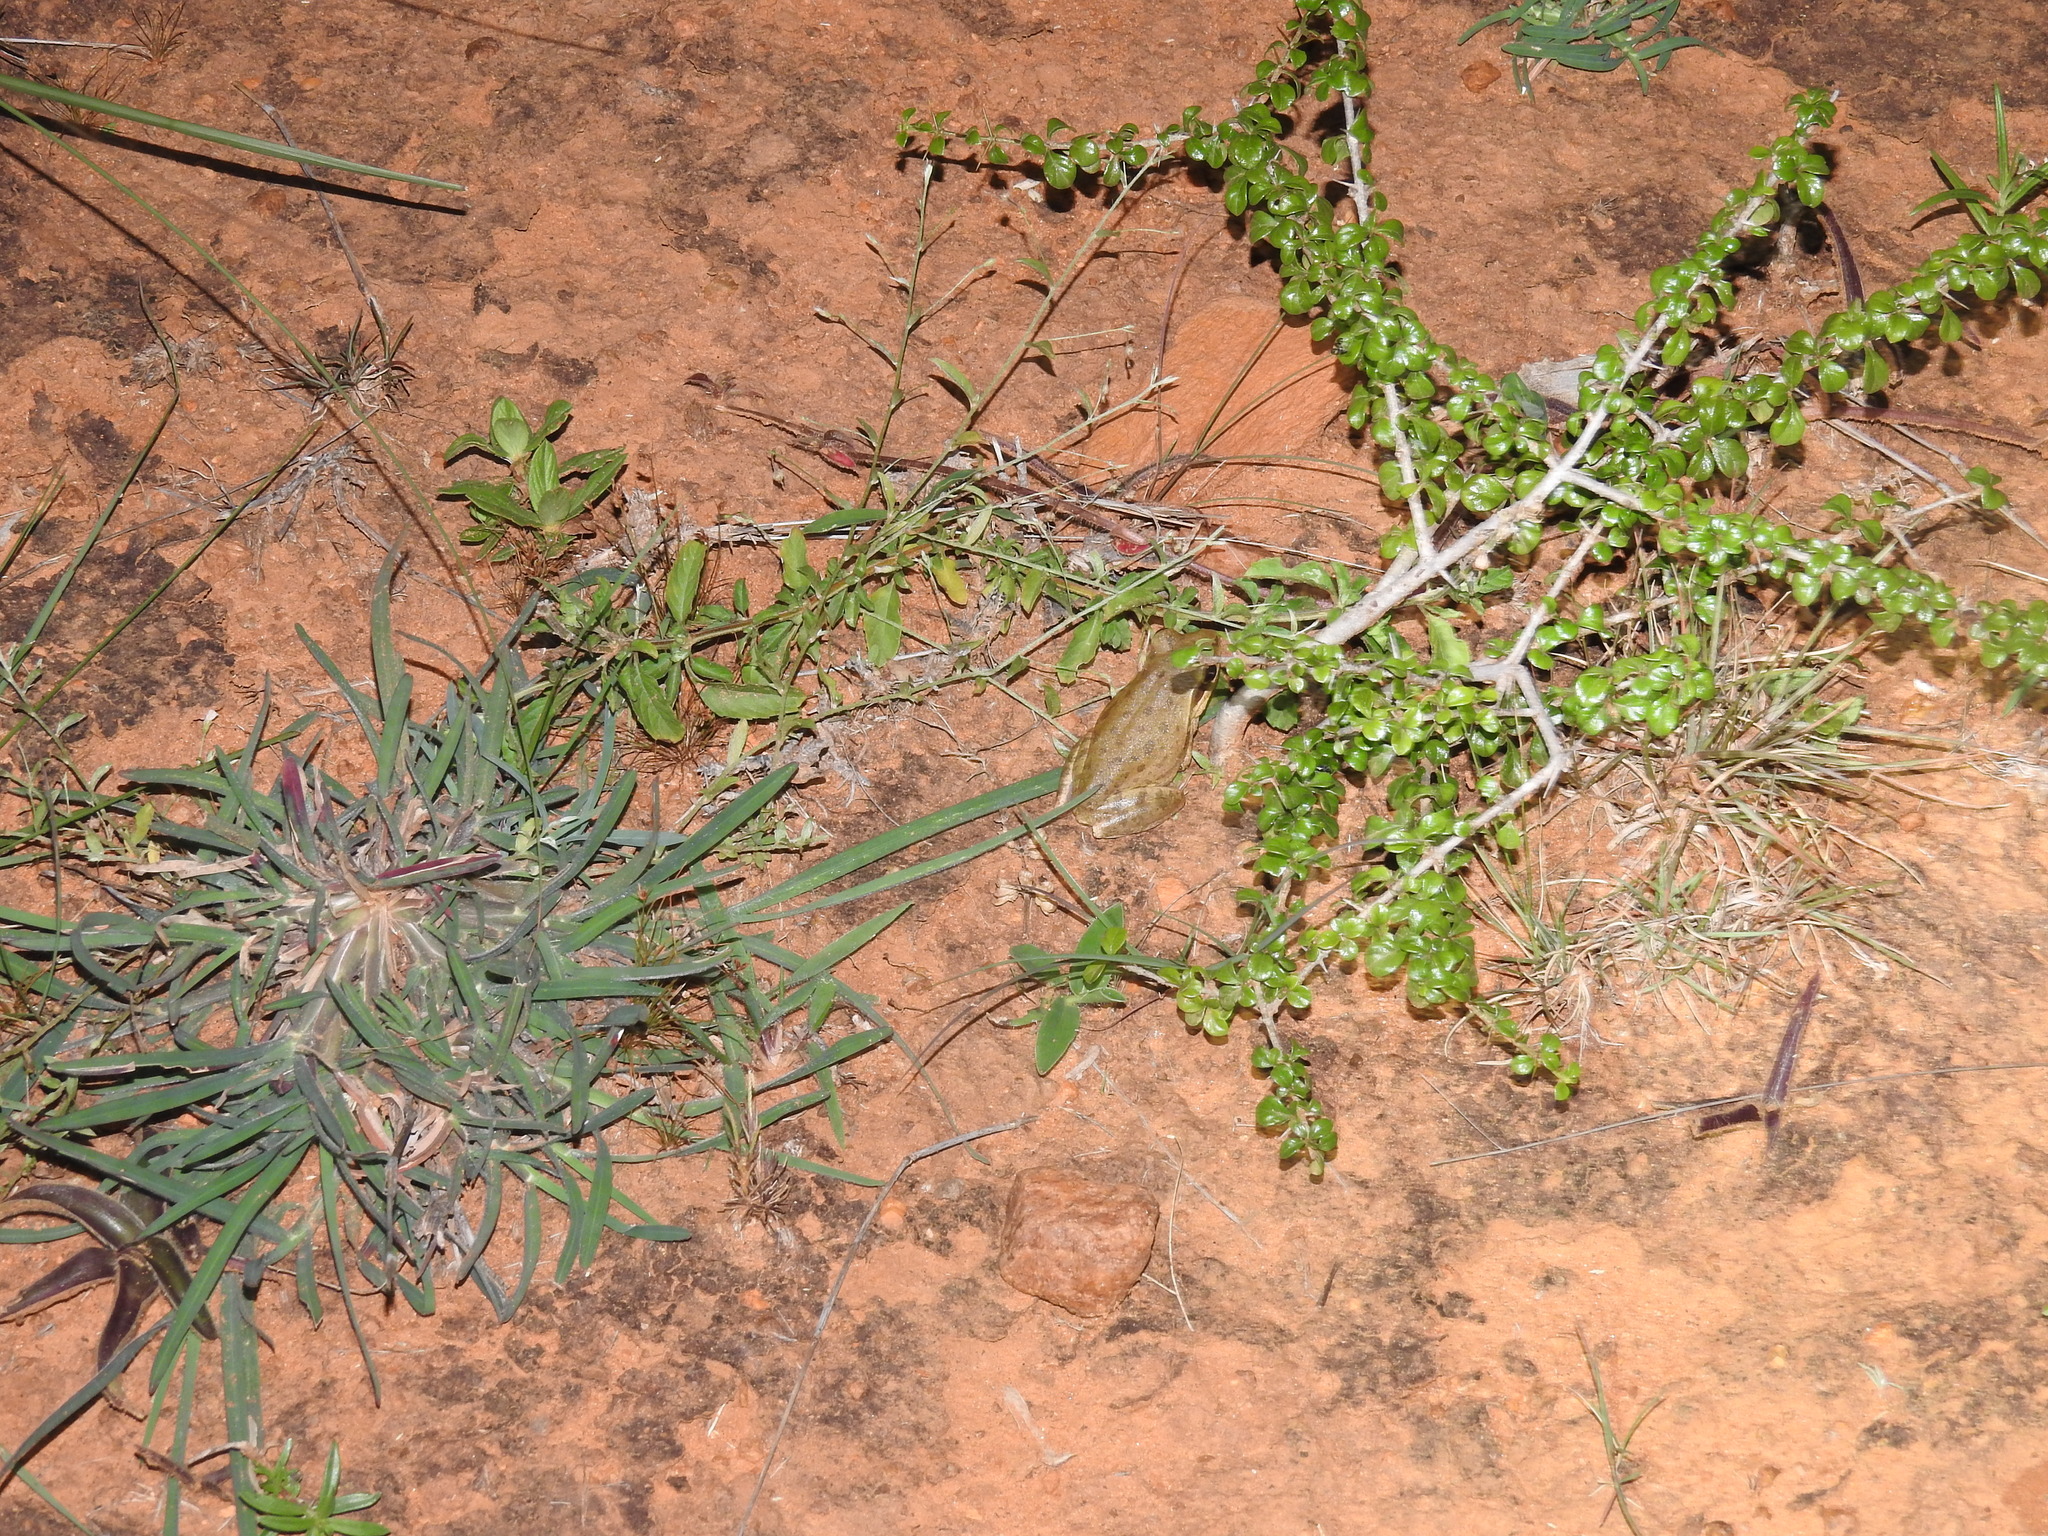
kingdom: Animalia
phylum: Chordata
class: Amphibia
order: Anura
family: Rhacophoridae
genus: Polypedates
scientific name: Polypedates maculatus
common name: Himalayan tree frog
